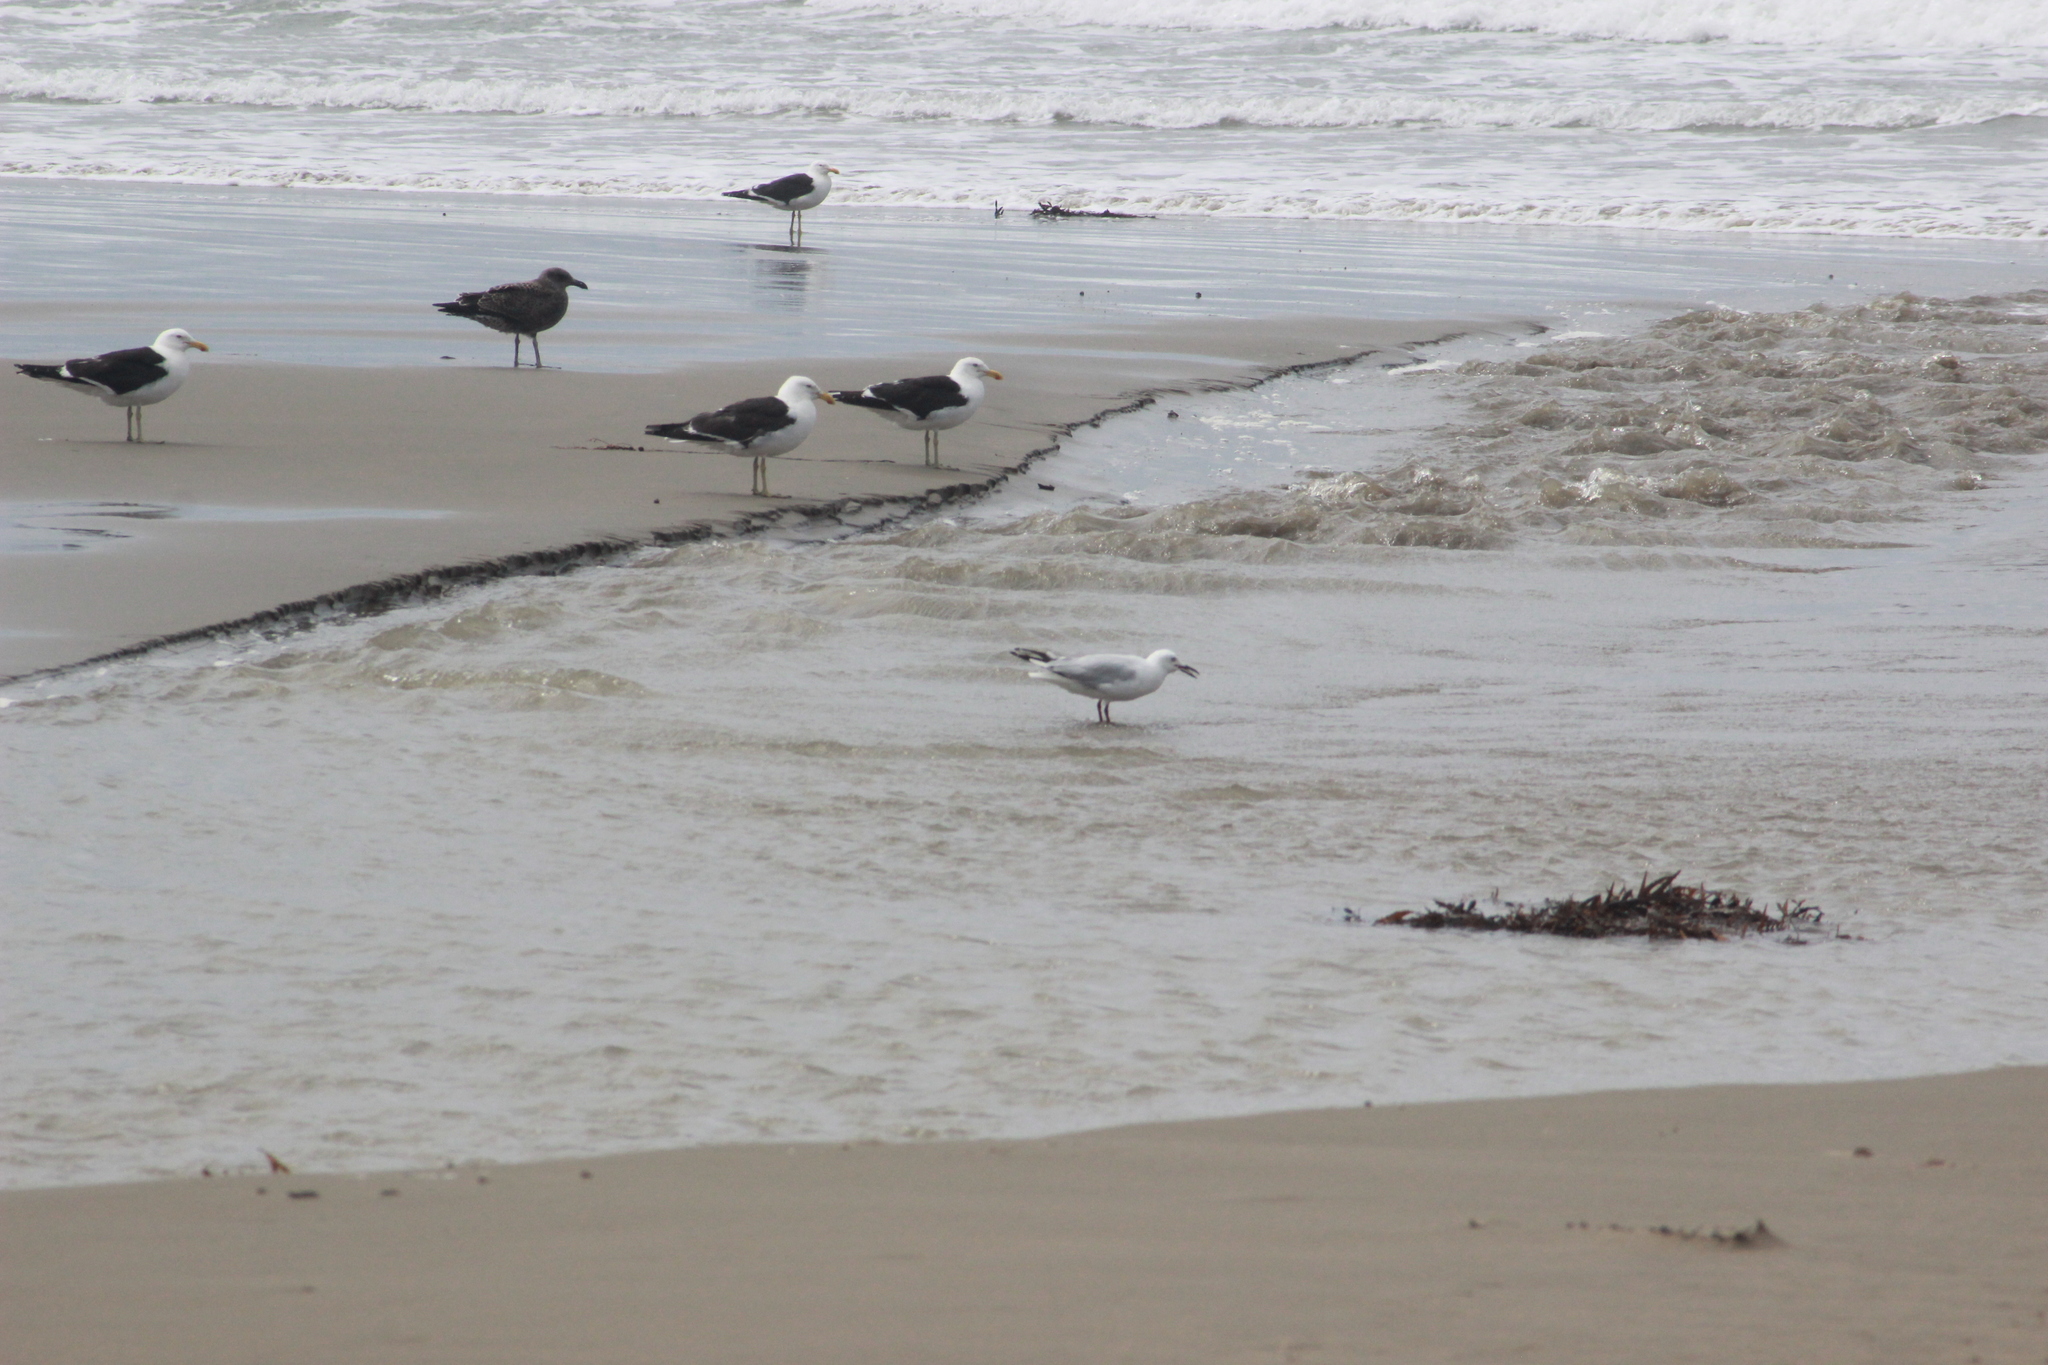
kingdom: Animalia
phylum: Chordata
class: Aves
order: Charadriiformes
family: Laridae
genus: Larus
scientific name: Larus dominicanus
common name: Kelp gull
